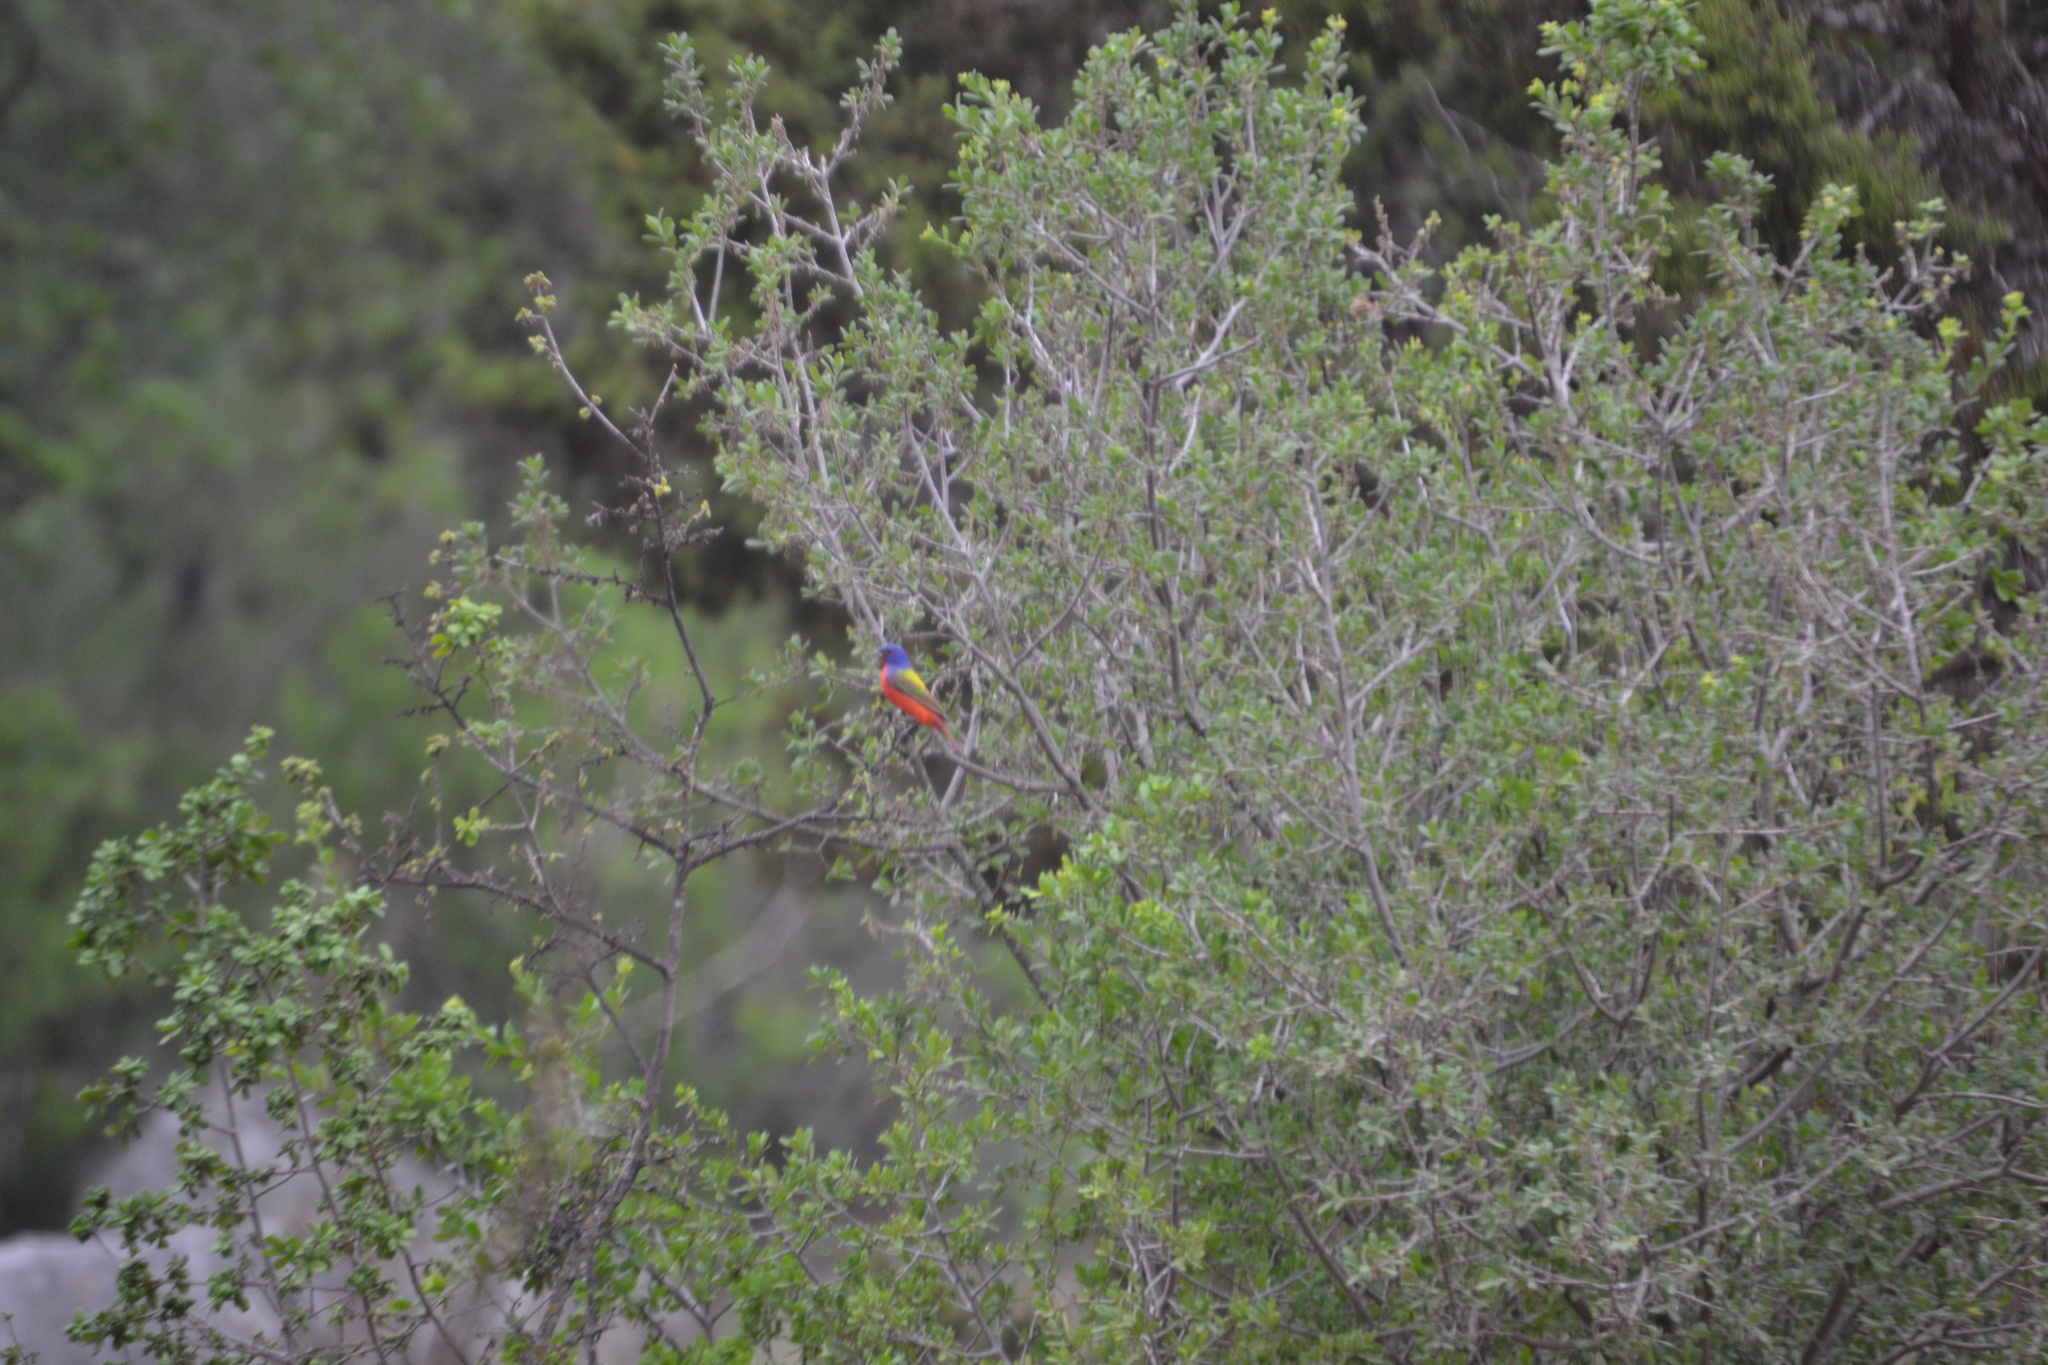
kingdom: Animalia
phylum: Chordata
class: Aves
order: Passeriformes
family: Cardinalidae
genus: Passerina
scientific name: Passerina ciris
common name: Painted bunting
